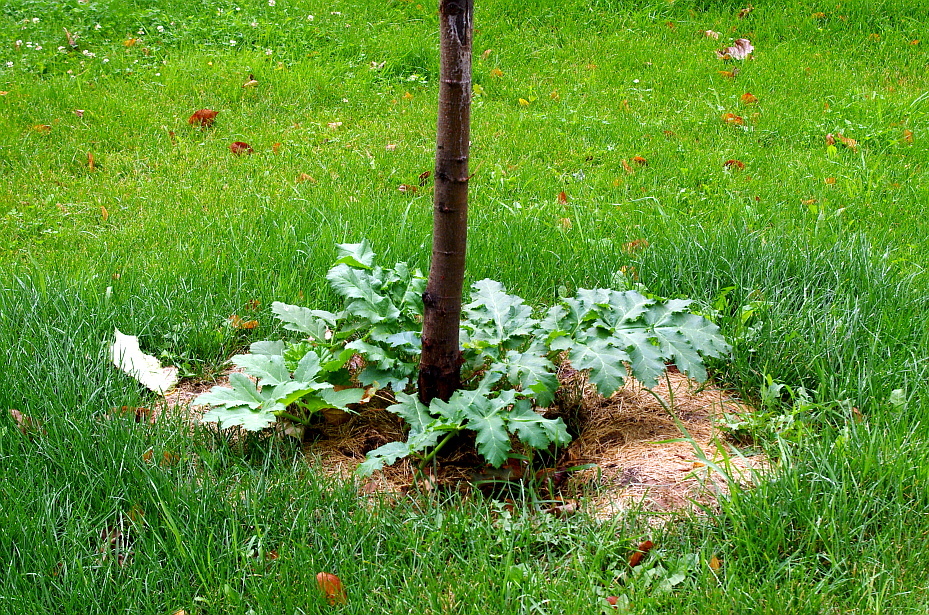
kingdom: Plantae
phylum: Tracheophyta
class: Magnoliopsida
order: Apiales
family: Apiaceae
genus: Heracleum
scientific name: Heracleum sosnowskyi
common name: Sosnowsky's hogweed
